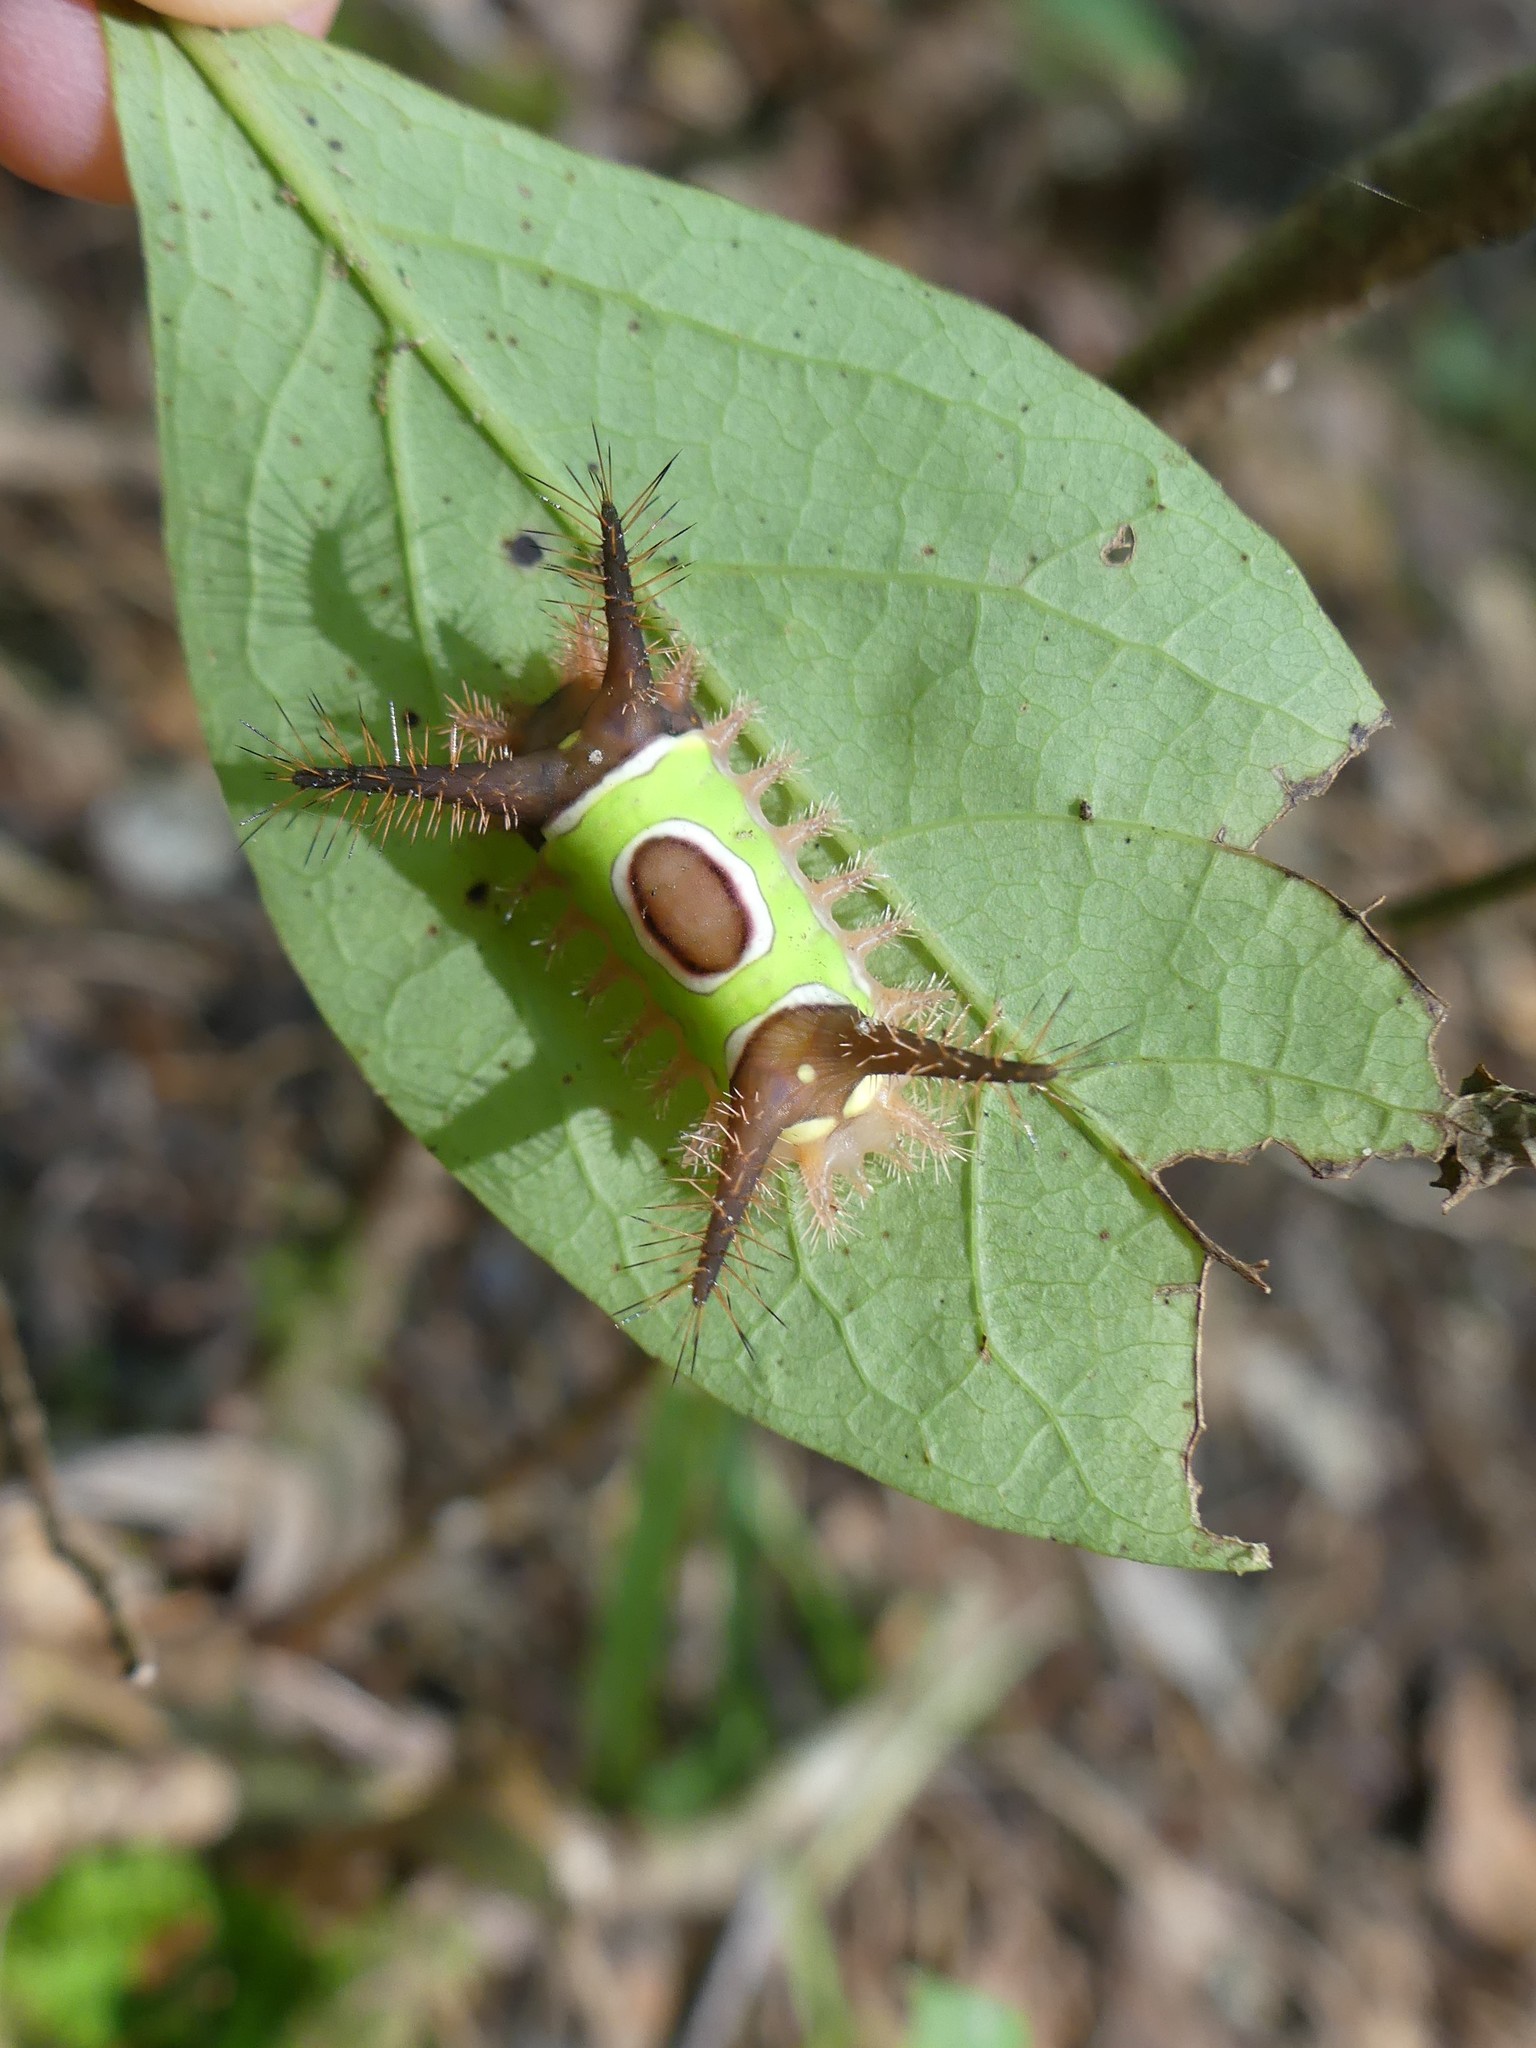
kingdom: Animalia
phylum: Arthropoda
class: Insecta
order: Lepidoptera
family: Limacodidae
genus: Acharia
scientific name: Acharia stimulea
